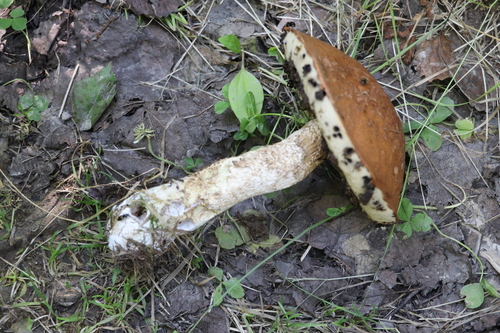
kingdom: Fungi
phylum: Basidiomycota
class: Agaricomycetes
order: Boletales
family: Boletaceae
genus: Leccinum
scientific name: Leccinum albostipitatum
